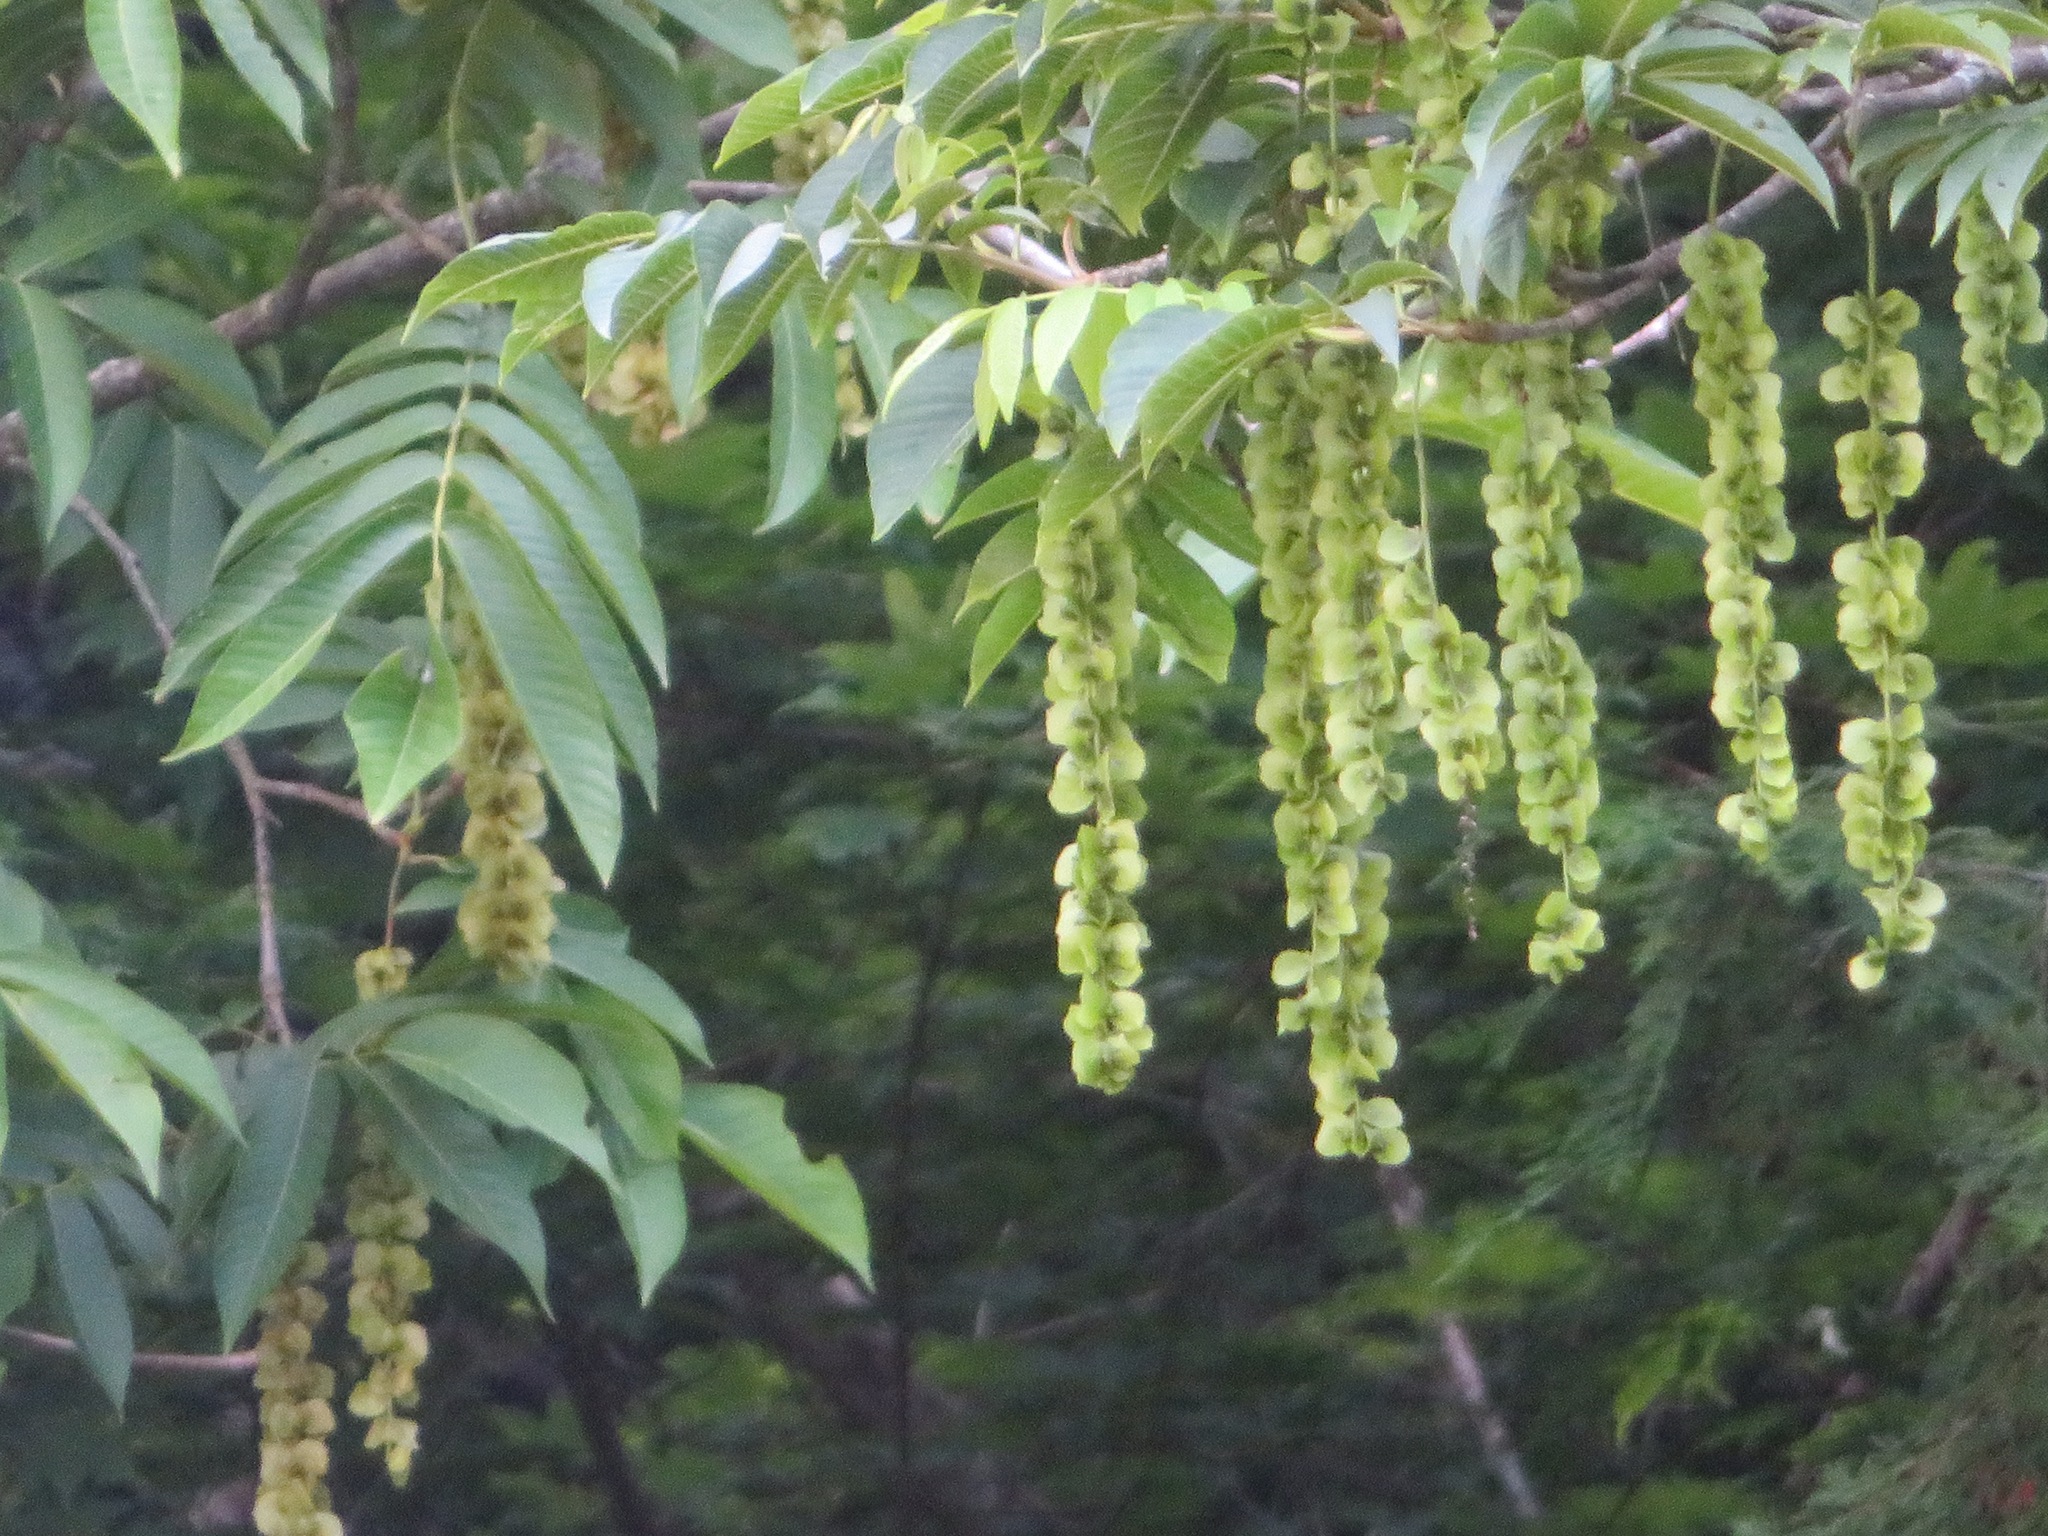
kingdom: Plantae
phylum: Tracheophyta
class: Magnoliopsida
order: Fagales
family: Juglandaceae
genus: Pterocarya
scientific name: Pterocarya rhoifolia
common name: Japanese wingnut
